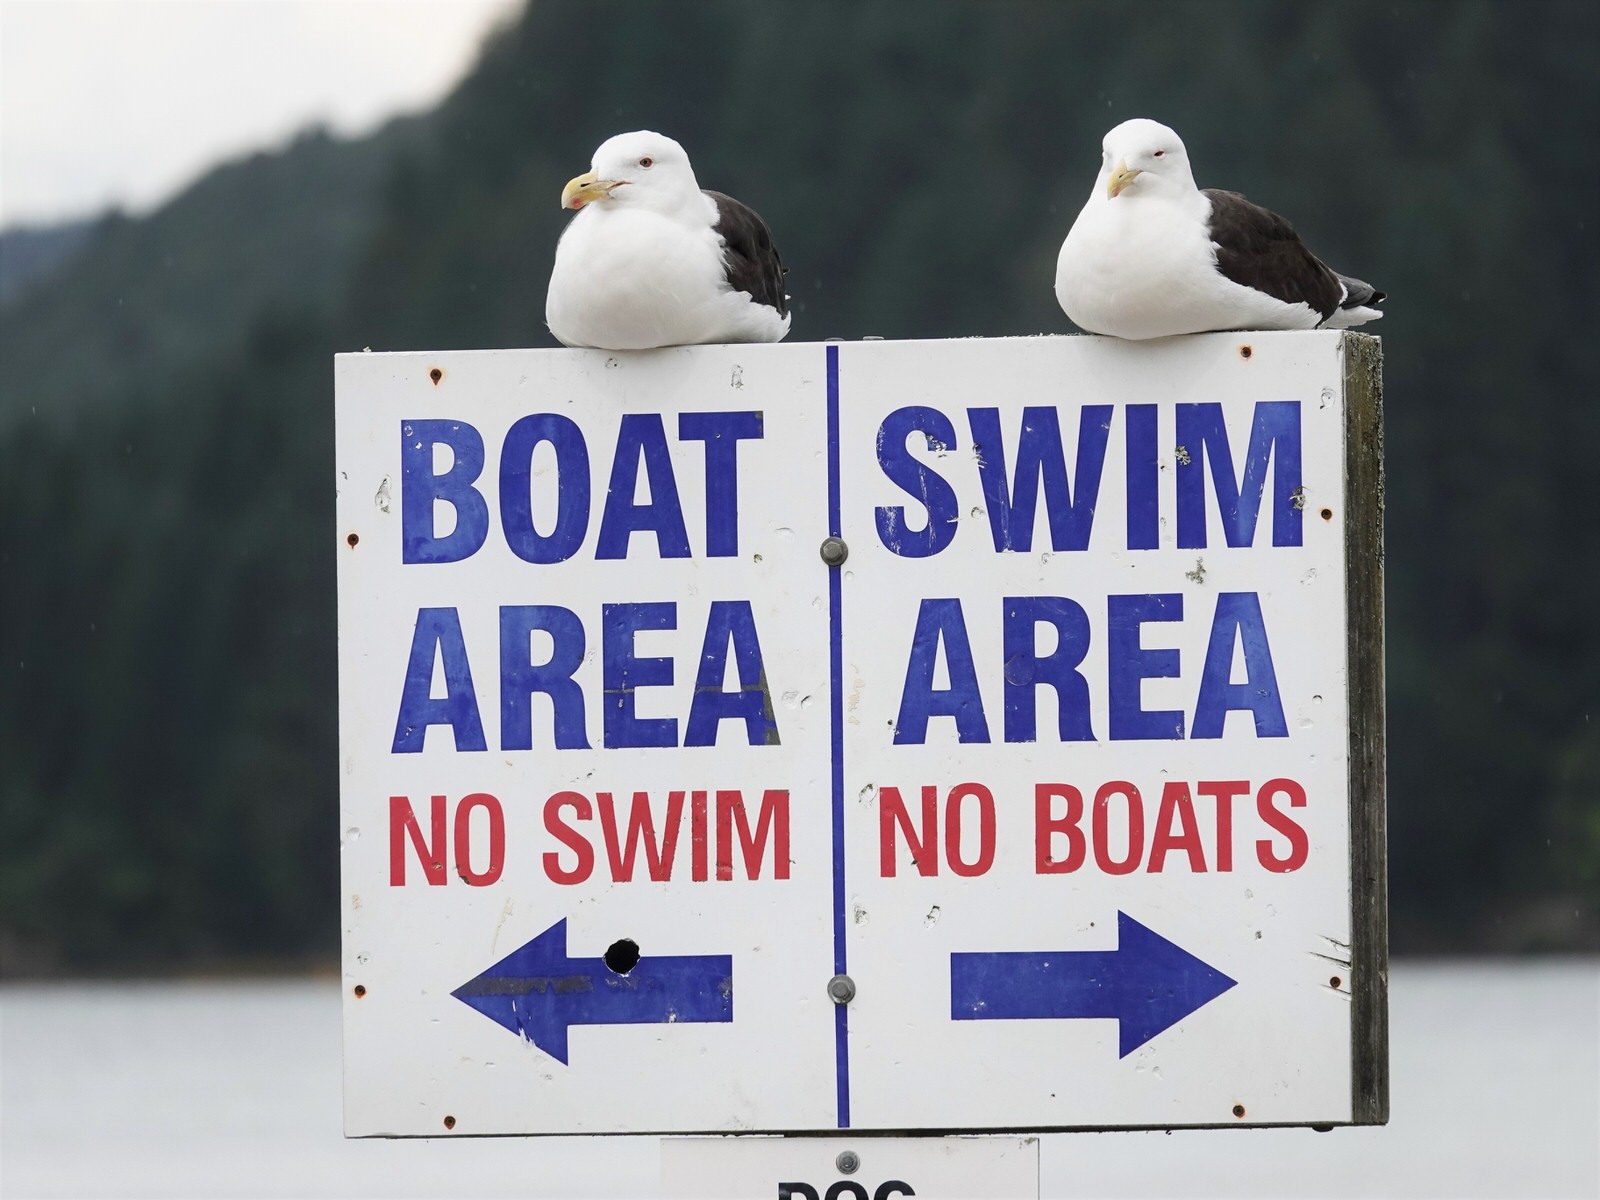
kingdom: Animalia
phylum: Chordata
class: Aves
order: Charadriiformes
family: Laridae
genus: Larus
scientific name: Larus dominicanus
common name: Kelp gull
